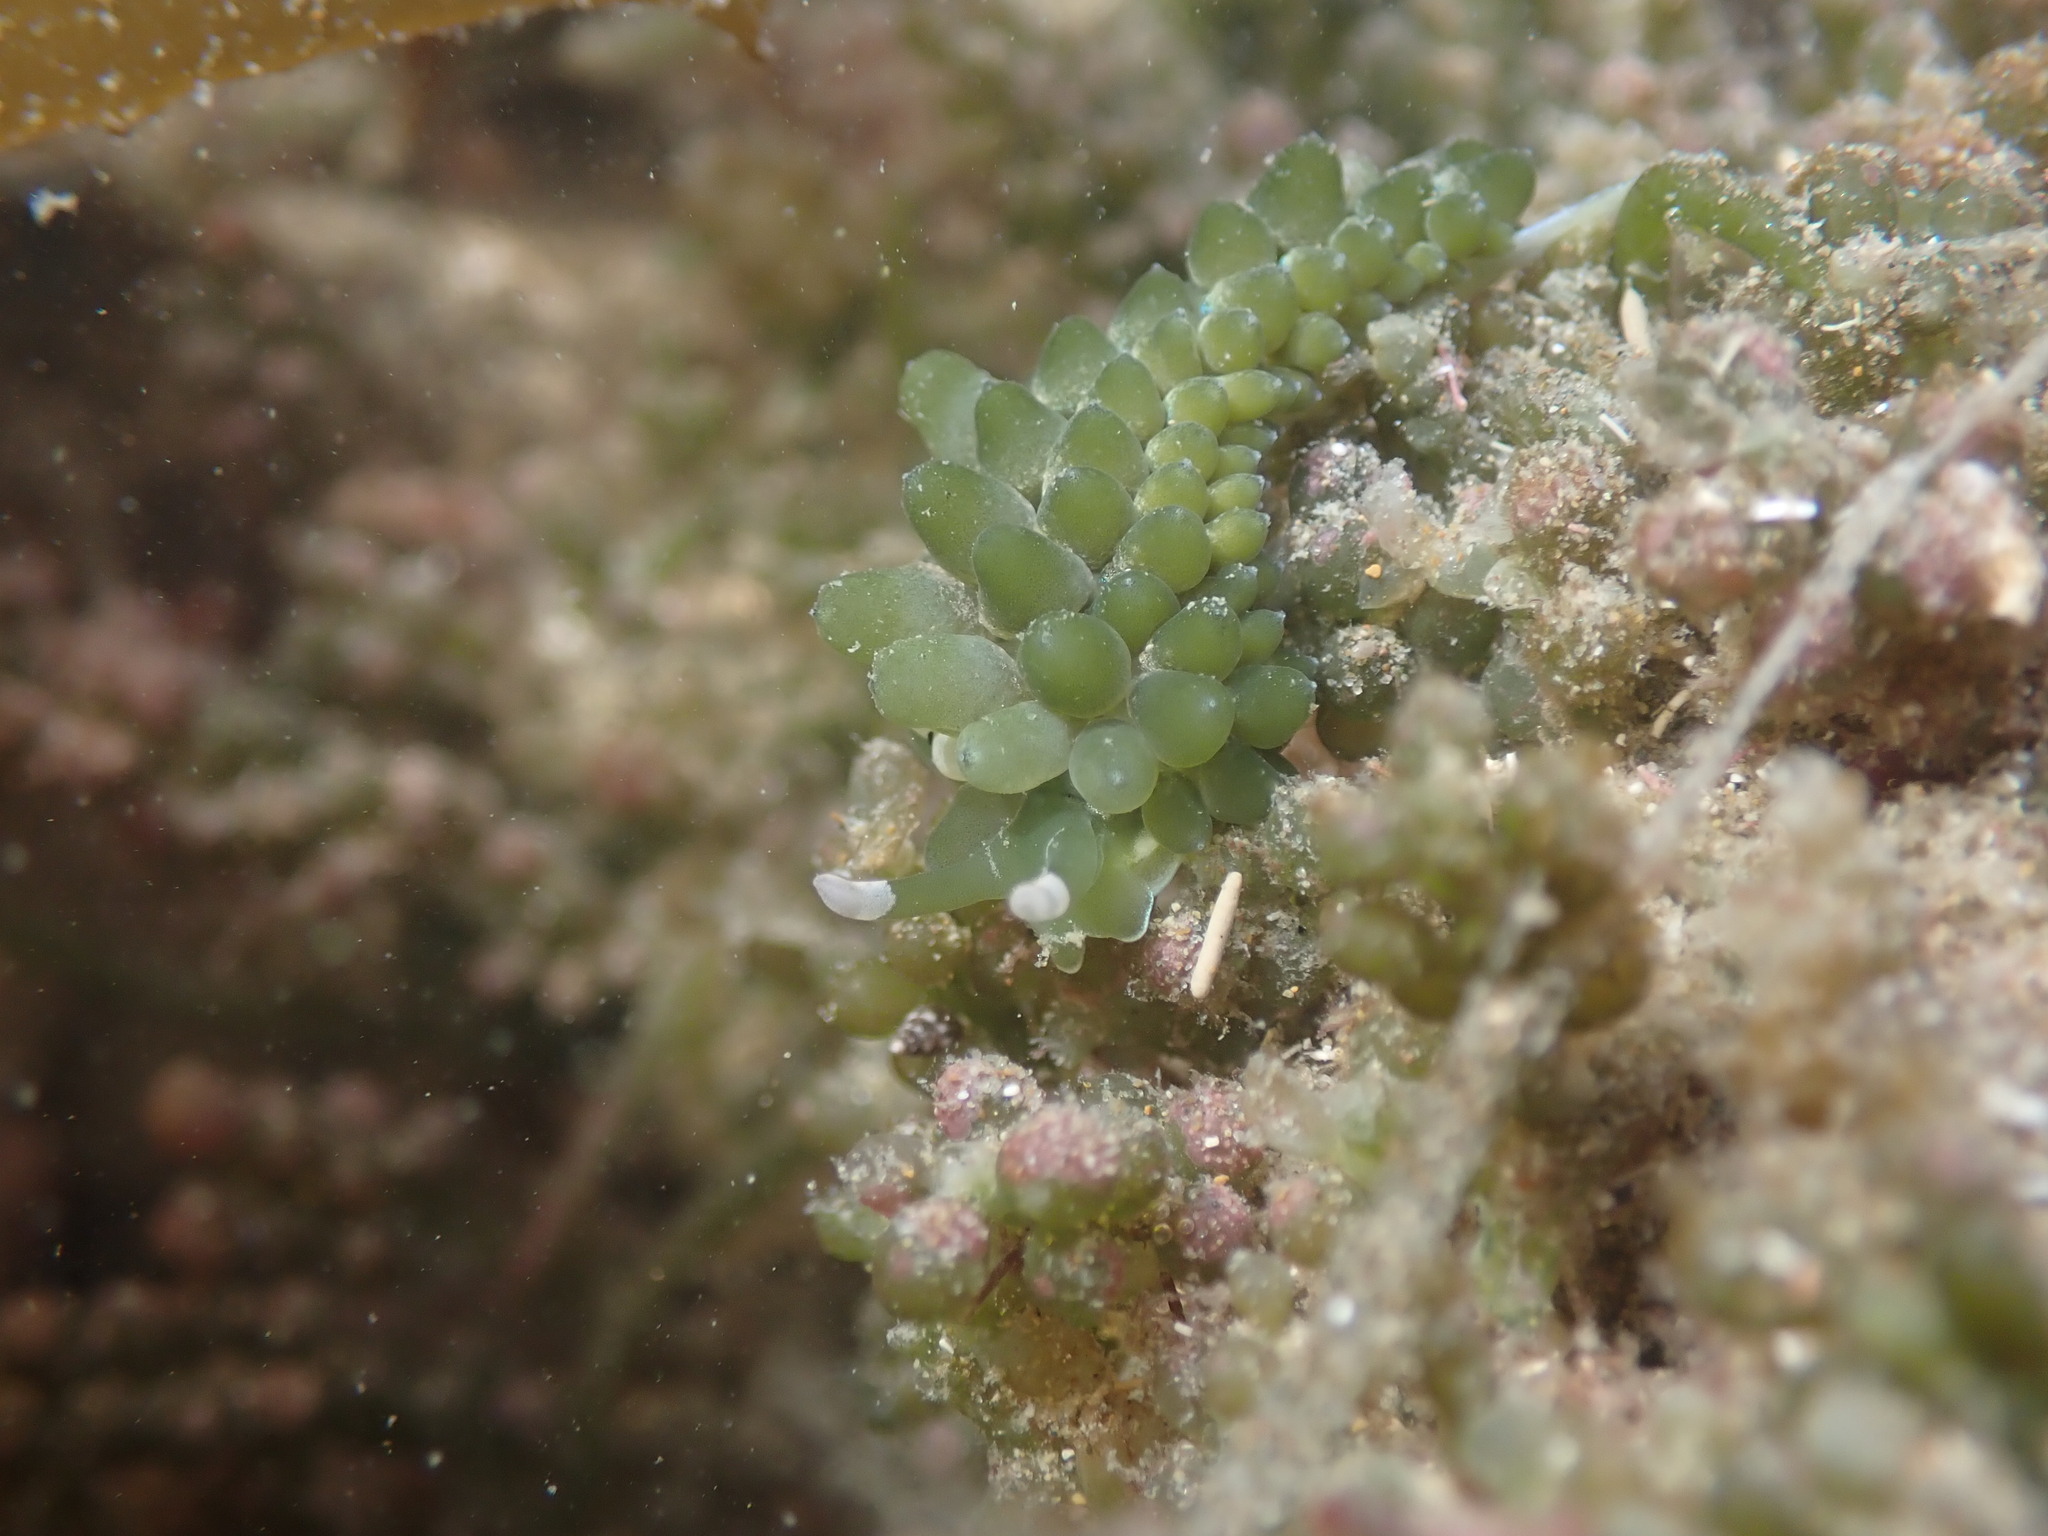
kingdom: Animalia
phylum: Mollusca
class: Gastropoda
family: Limapontiidae
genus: Sacoproteus
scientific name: Sacoproteus smaragdinus
